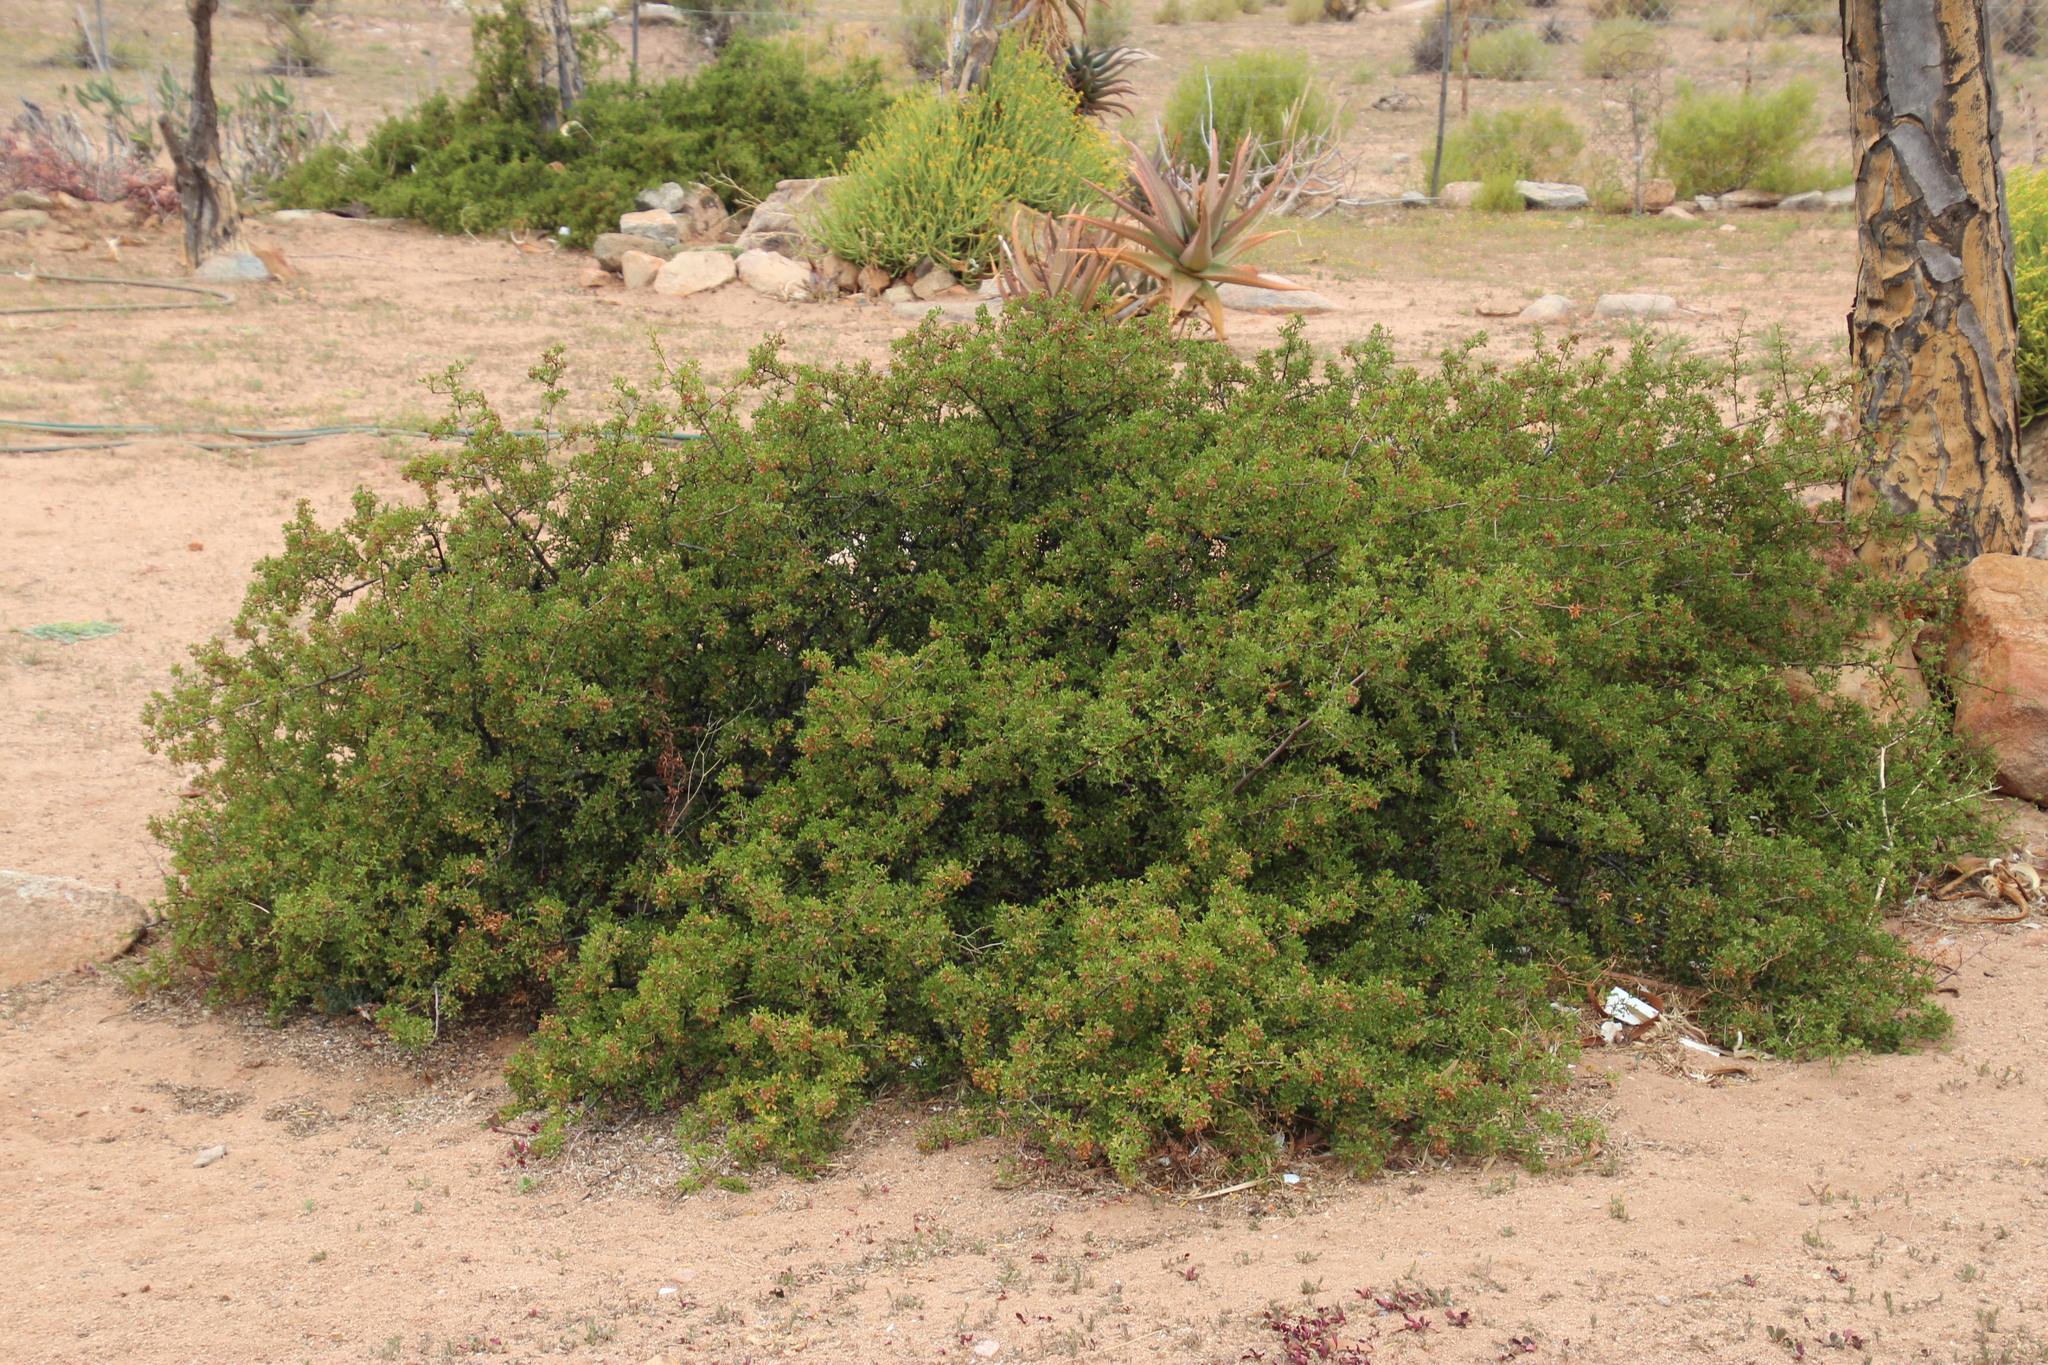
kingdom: Plantae
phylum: Tracheophyta
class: Magnoliopsida
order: Sapindales
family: Anacardiaceae
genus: Searsia
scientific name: Searsia undulata
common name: Namaqua kunibush
